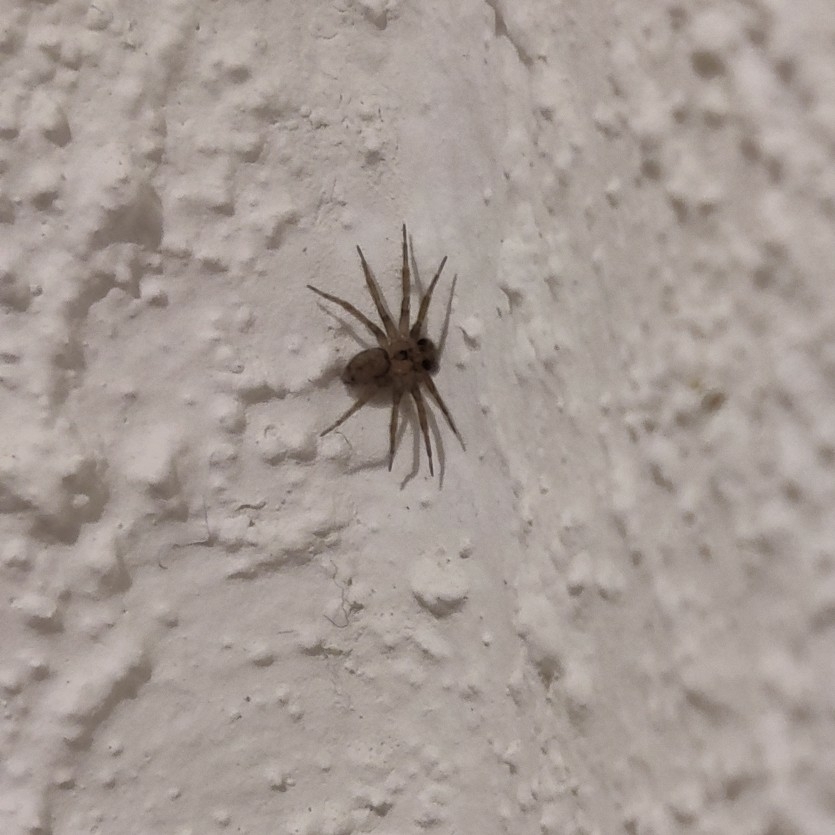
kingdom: Animalia
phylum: Arthropoda
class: Arachnida
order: Araneae
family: Oecobiidae
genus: Oecobius
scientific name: Oecobius navus
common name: Flatmesh weaver
